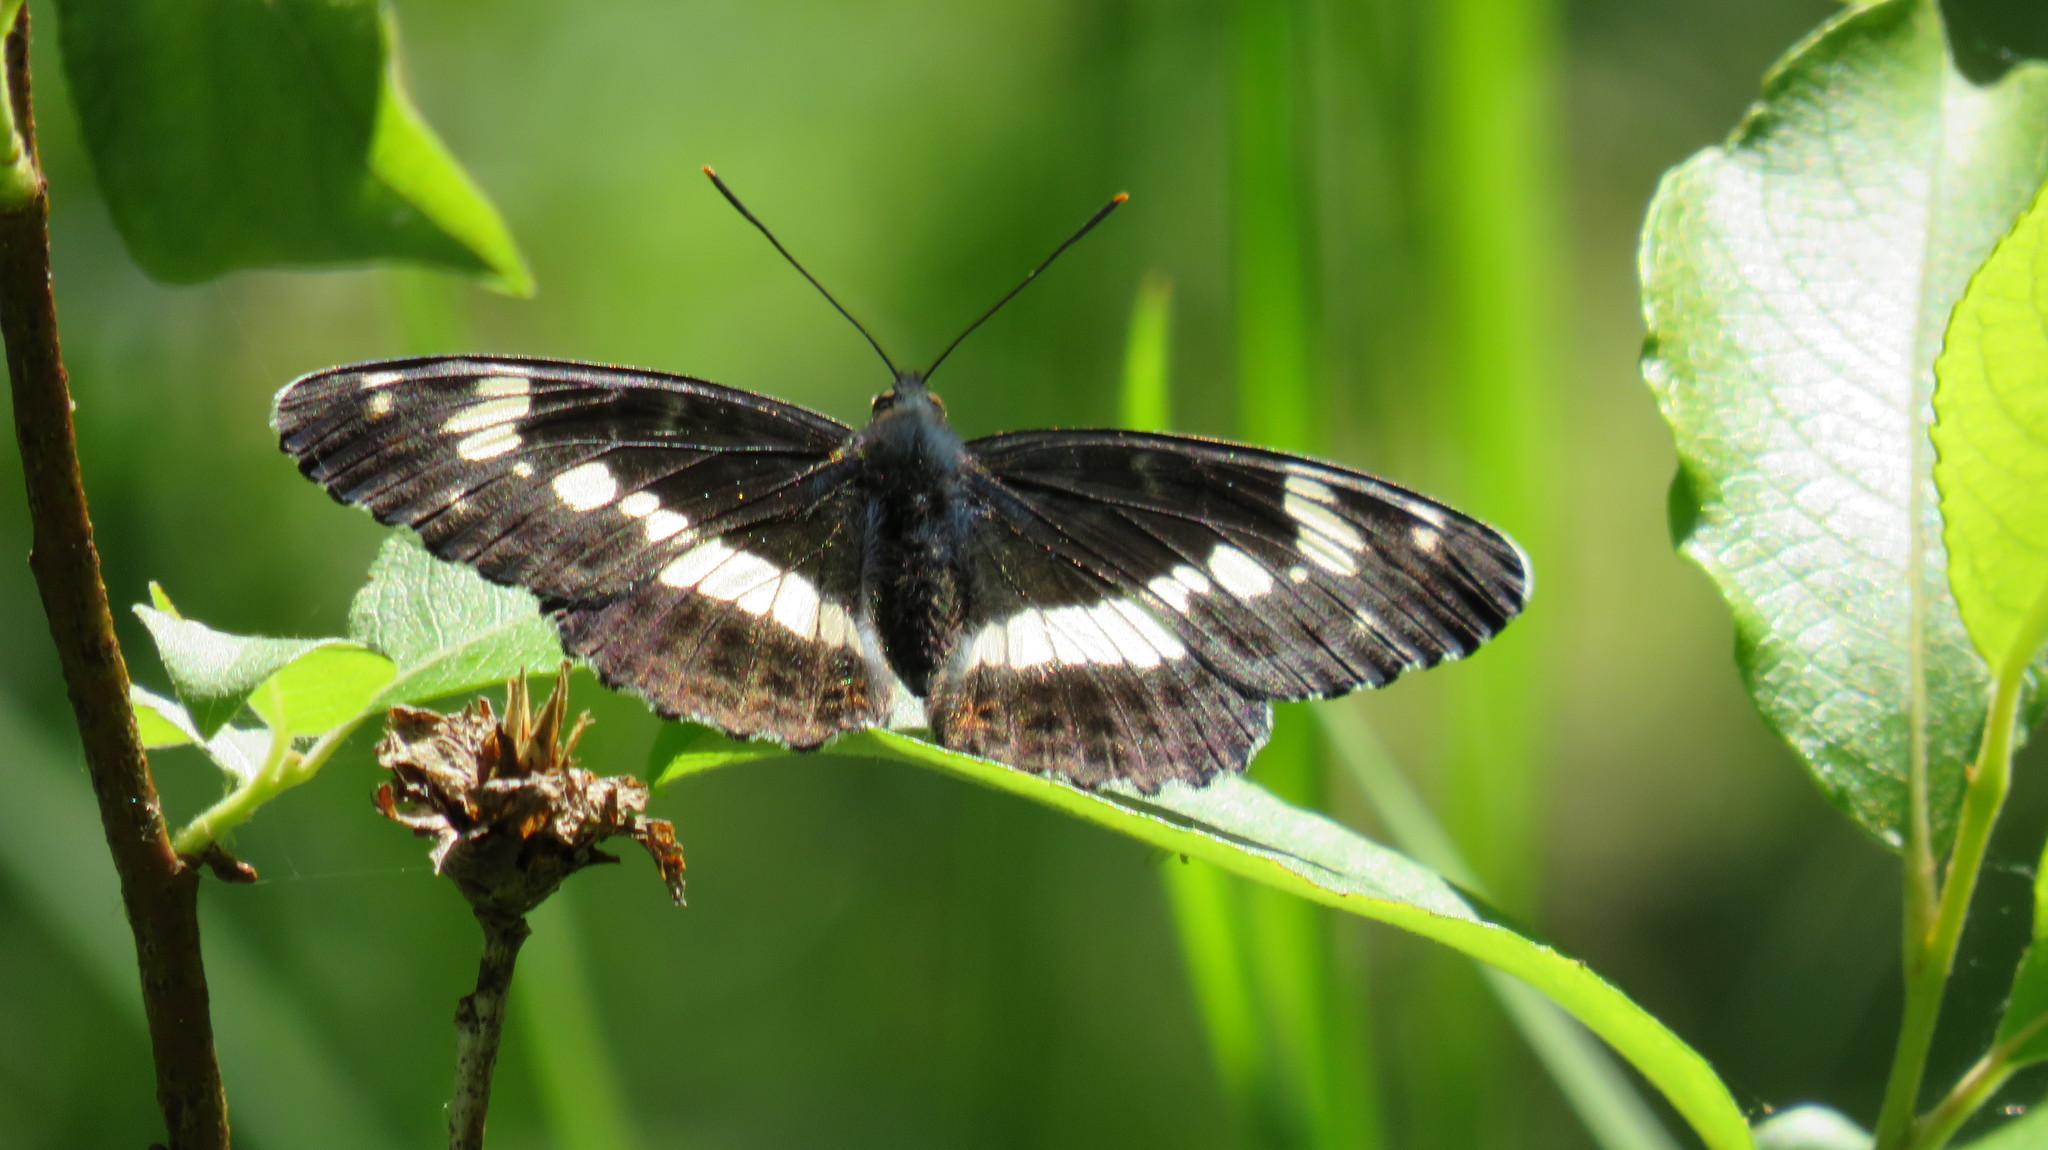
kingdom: Animalia
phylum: Arthropoda
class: Insecta
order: Lepidoptera
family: Nymphalidae
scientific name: Nymphalidae
